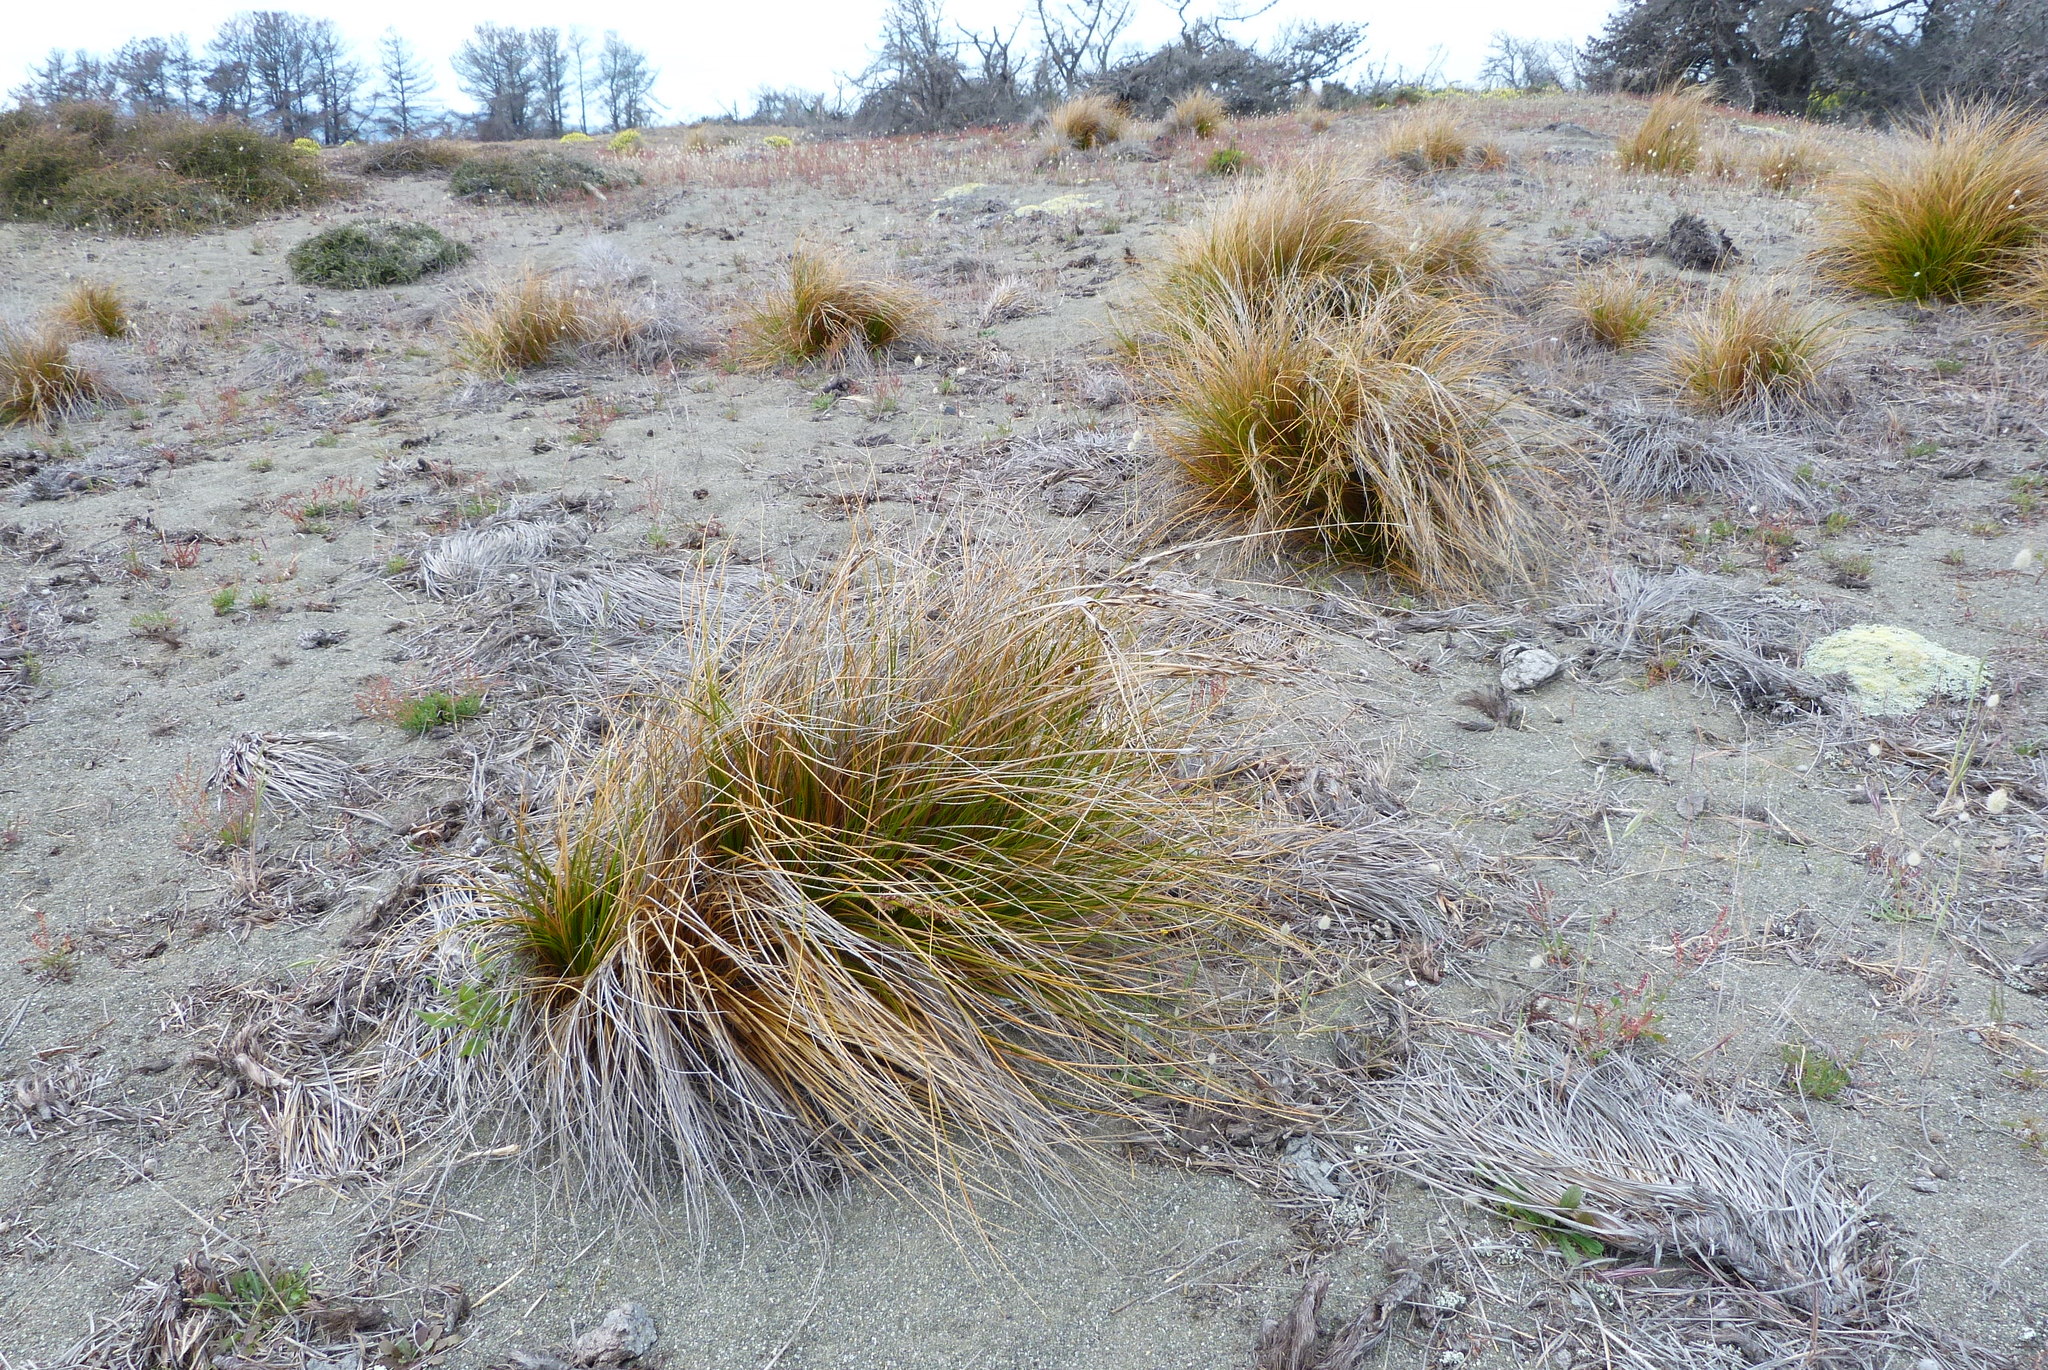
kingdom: Plantae
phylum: Tracheophyta
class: Liliopsida
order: Poales
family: Cyperaceae
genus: Ficinia
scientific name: Ficinia spiralis
